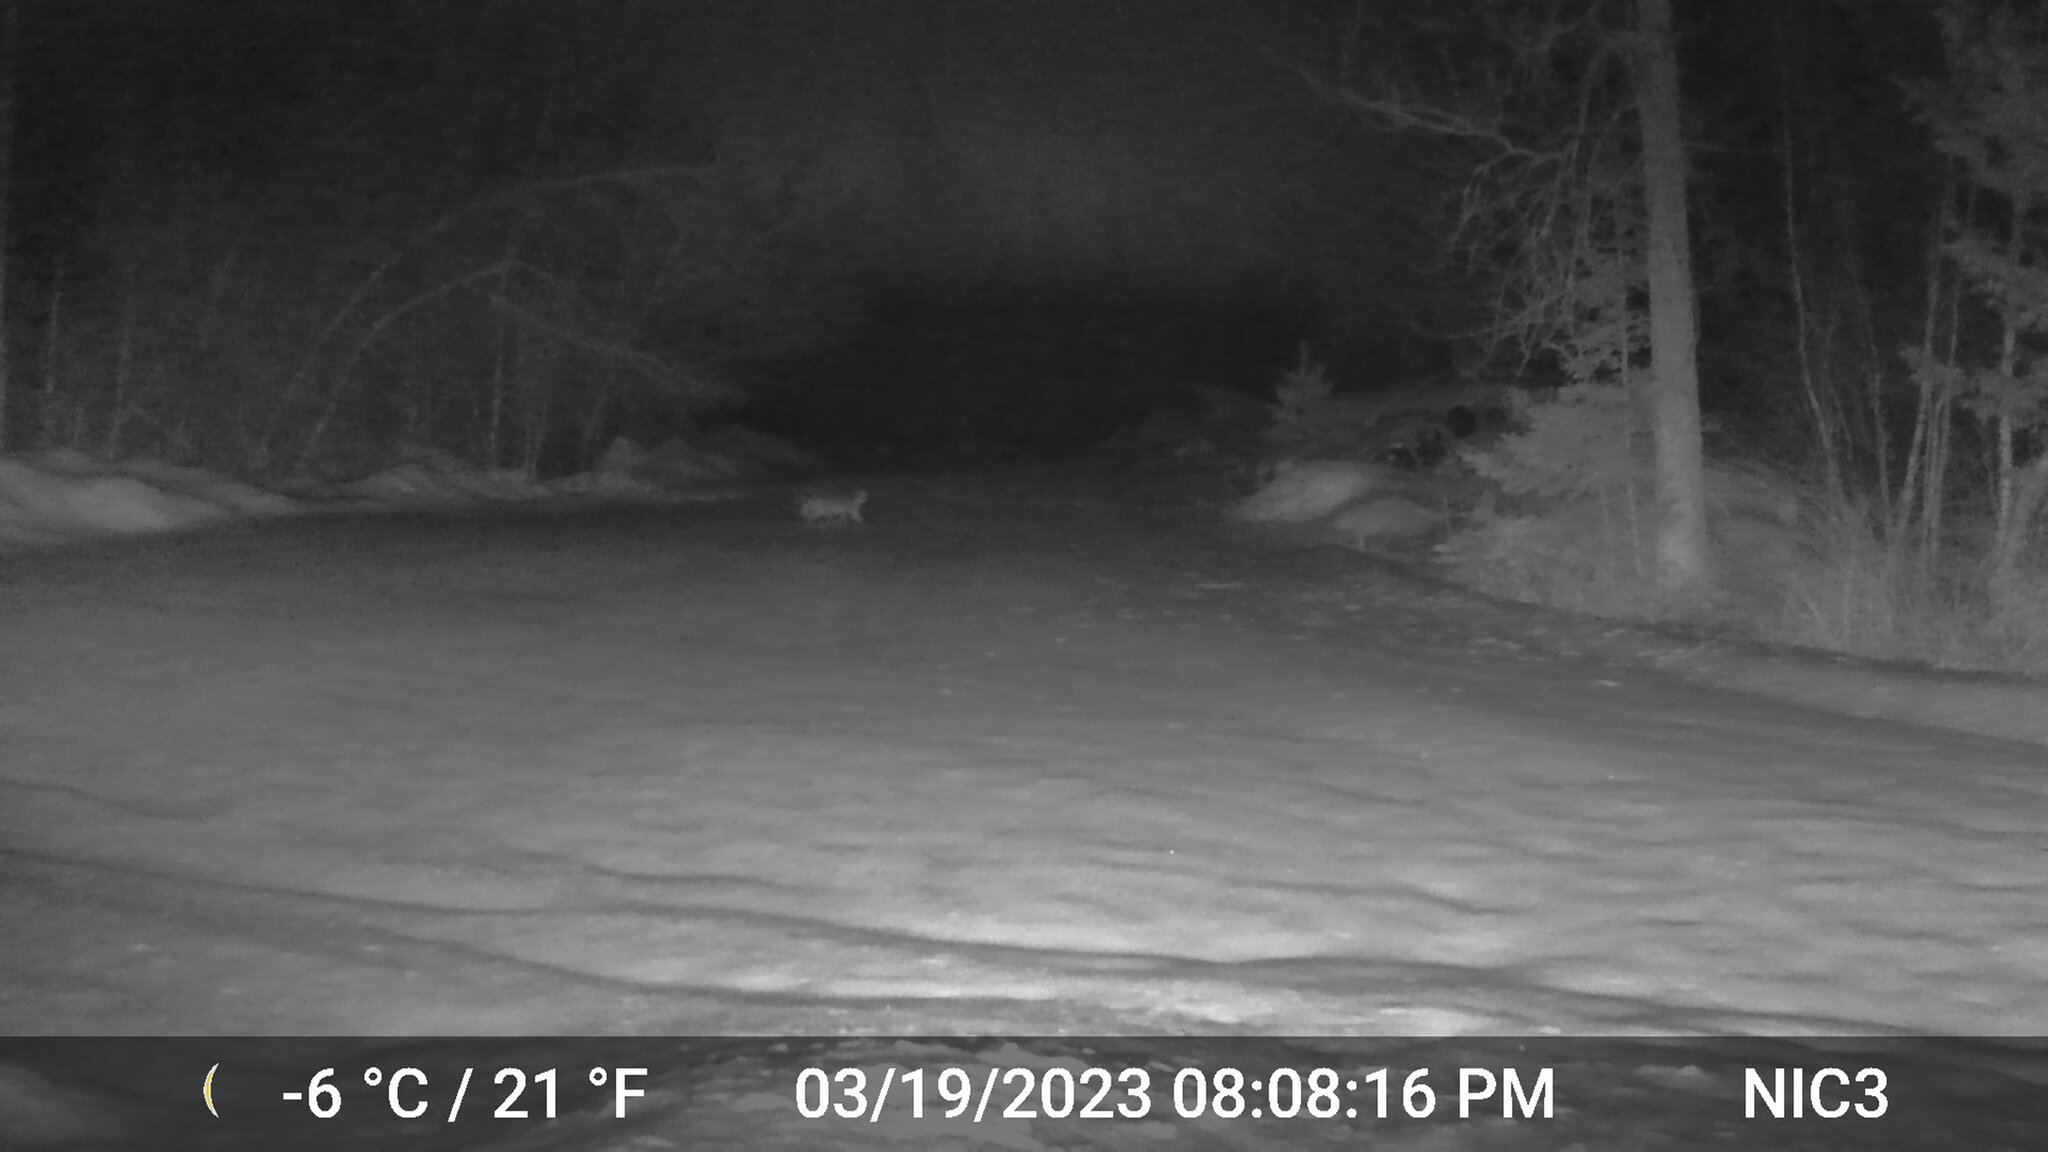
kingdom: Animalia
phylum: Chordata
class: Mammalia
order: Carnivora
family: Canidae
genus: Vulpes
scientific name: Vulpes vulpes
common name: Red fox
